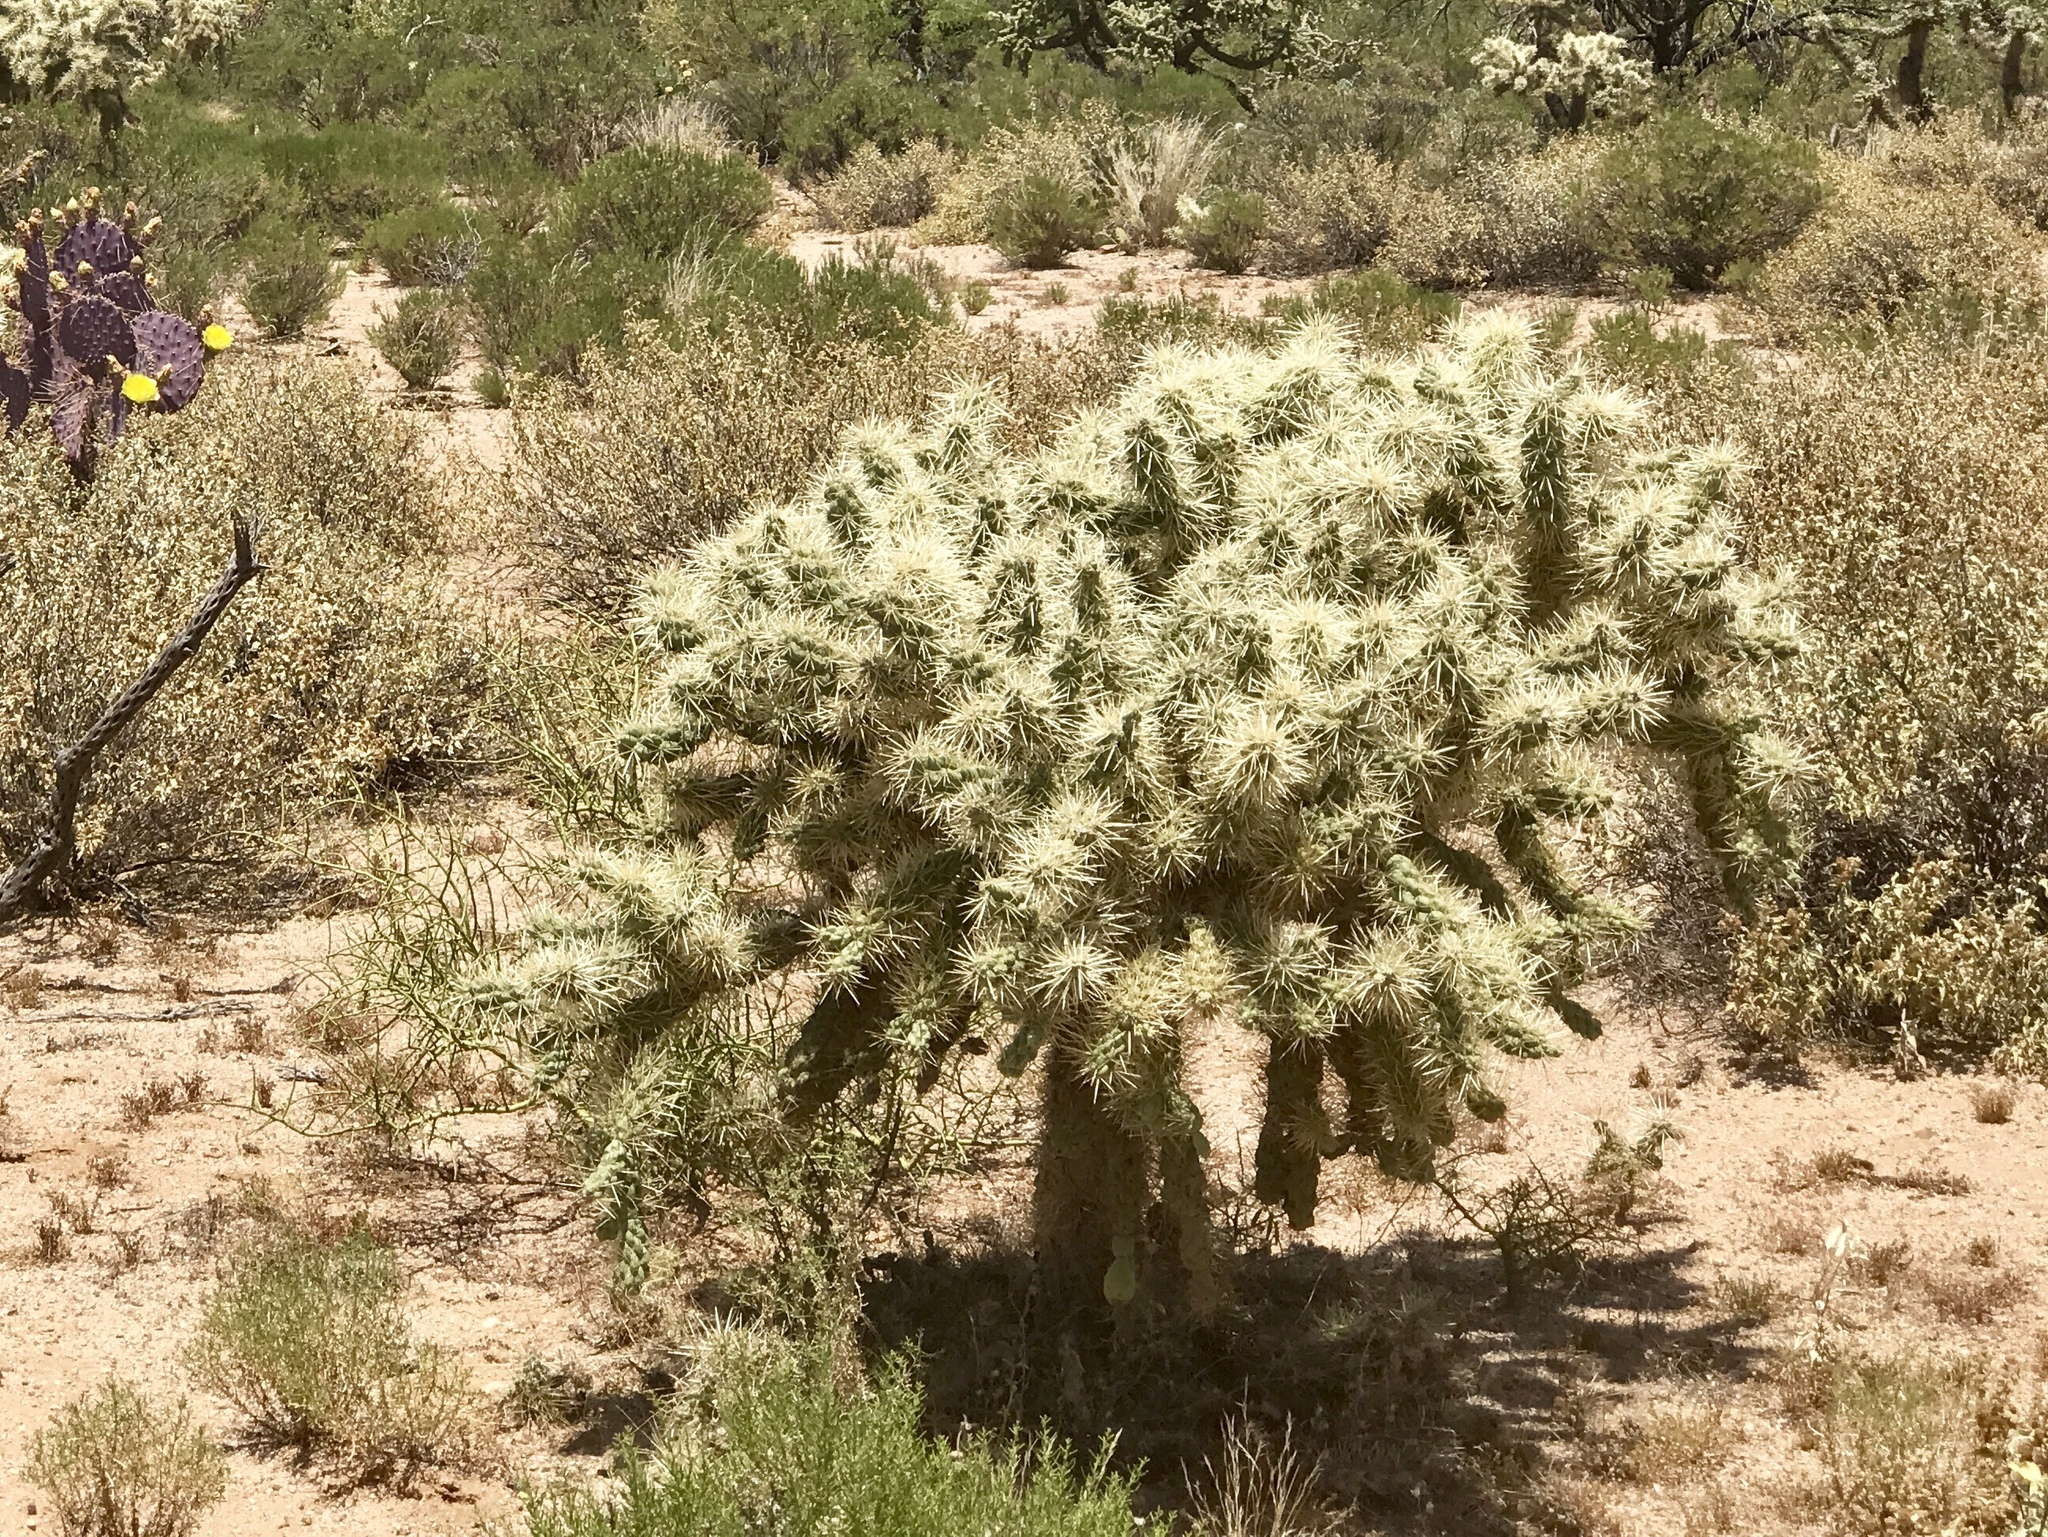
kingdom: Plantae
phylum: Tracheophyta
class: Magnoliopsida
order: Caryophyllales
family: Cactaceae
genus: Cylindropuntia
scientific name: Cylindropuntia fulgida
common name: Jumping cholla
